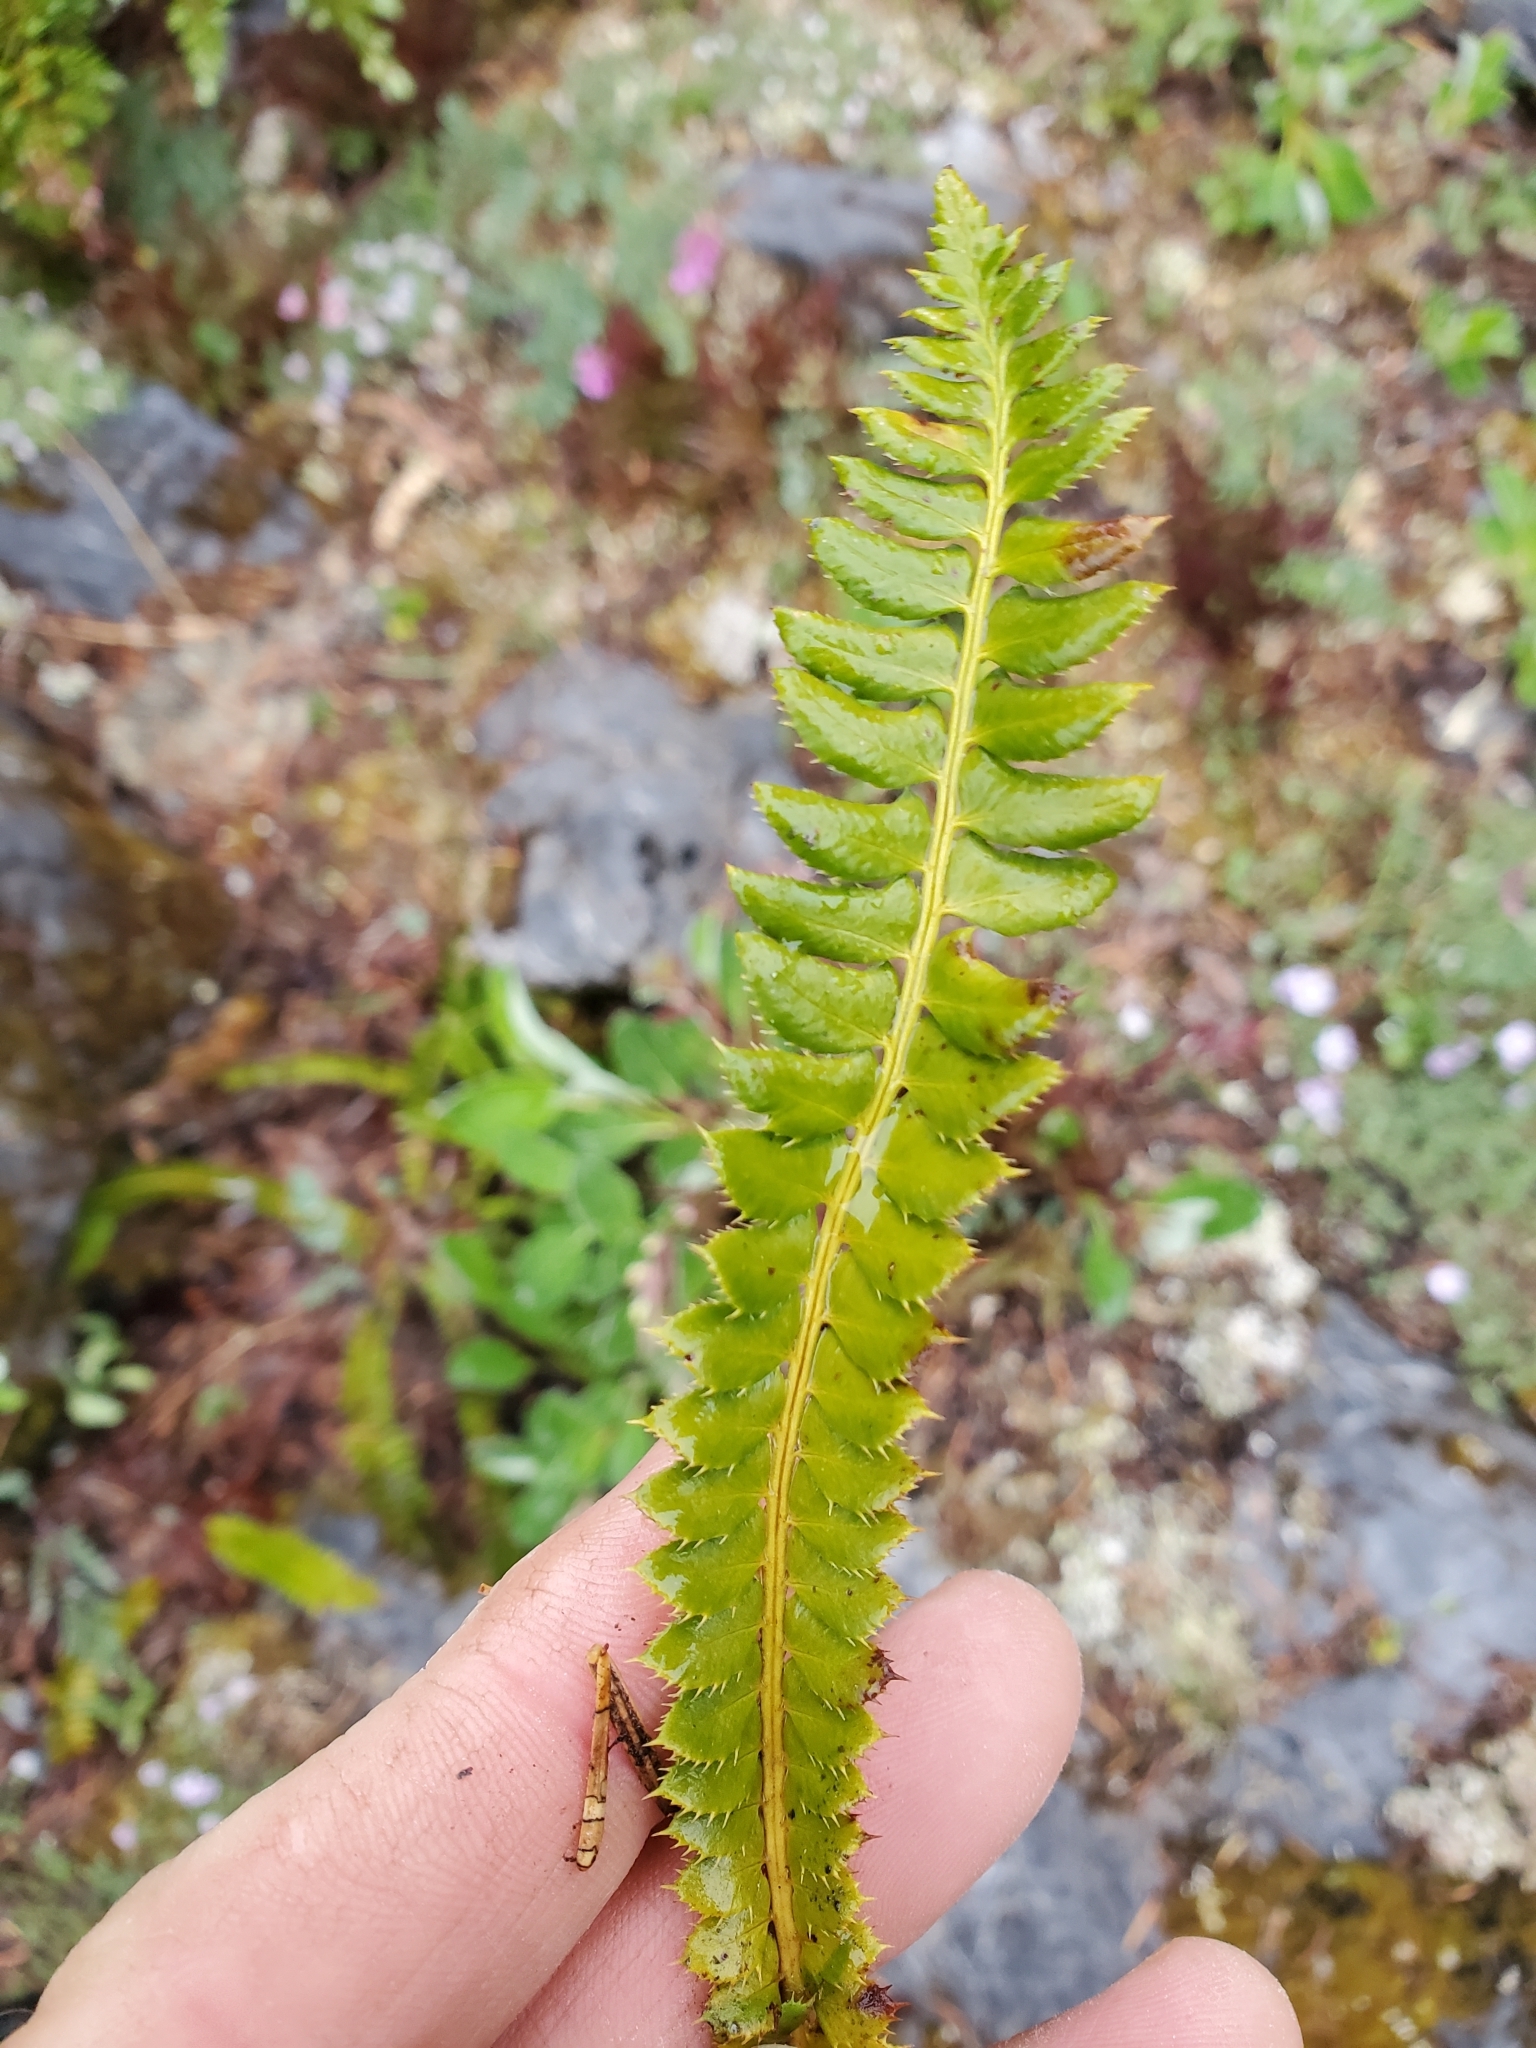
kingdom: Plantae
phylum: Tracheophyta
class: Polypodiopsida
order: Polypodiales
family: Dryopteridaceae
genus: Polystichum
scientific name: Polystichum lonchitis
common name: Holly fern
